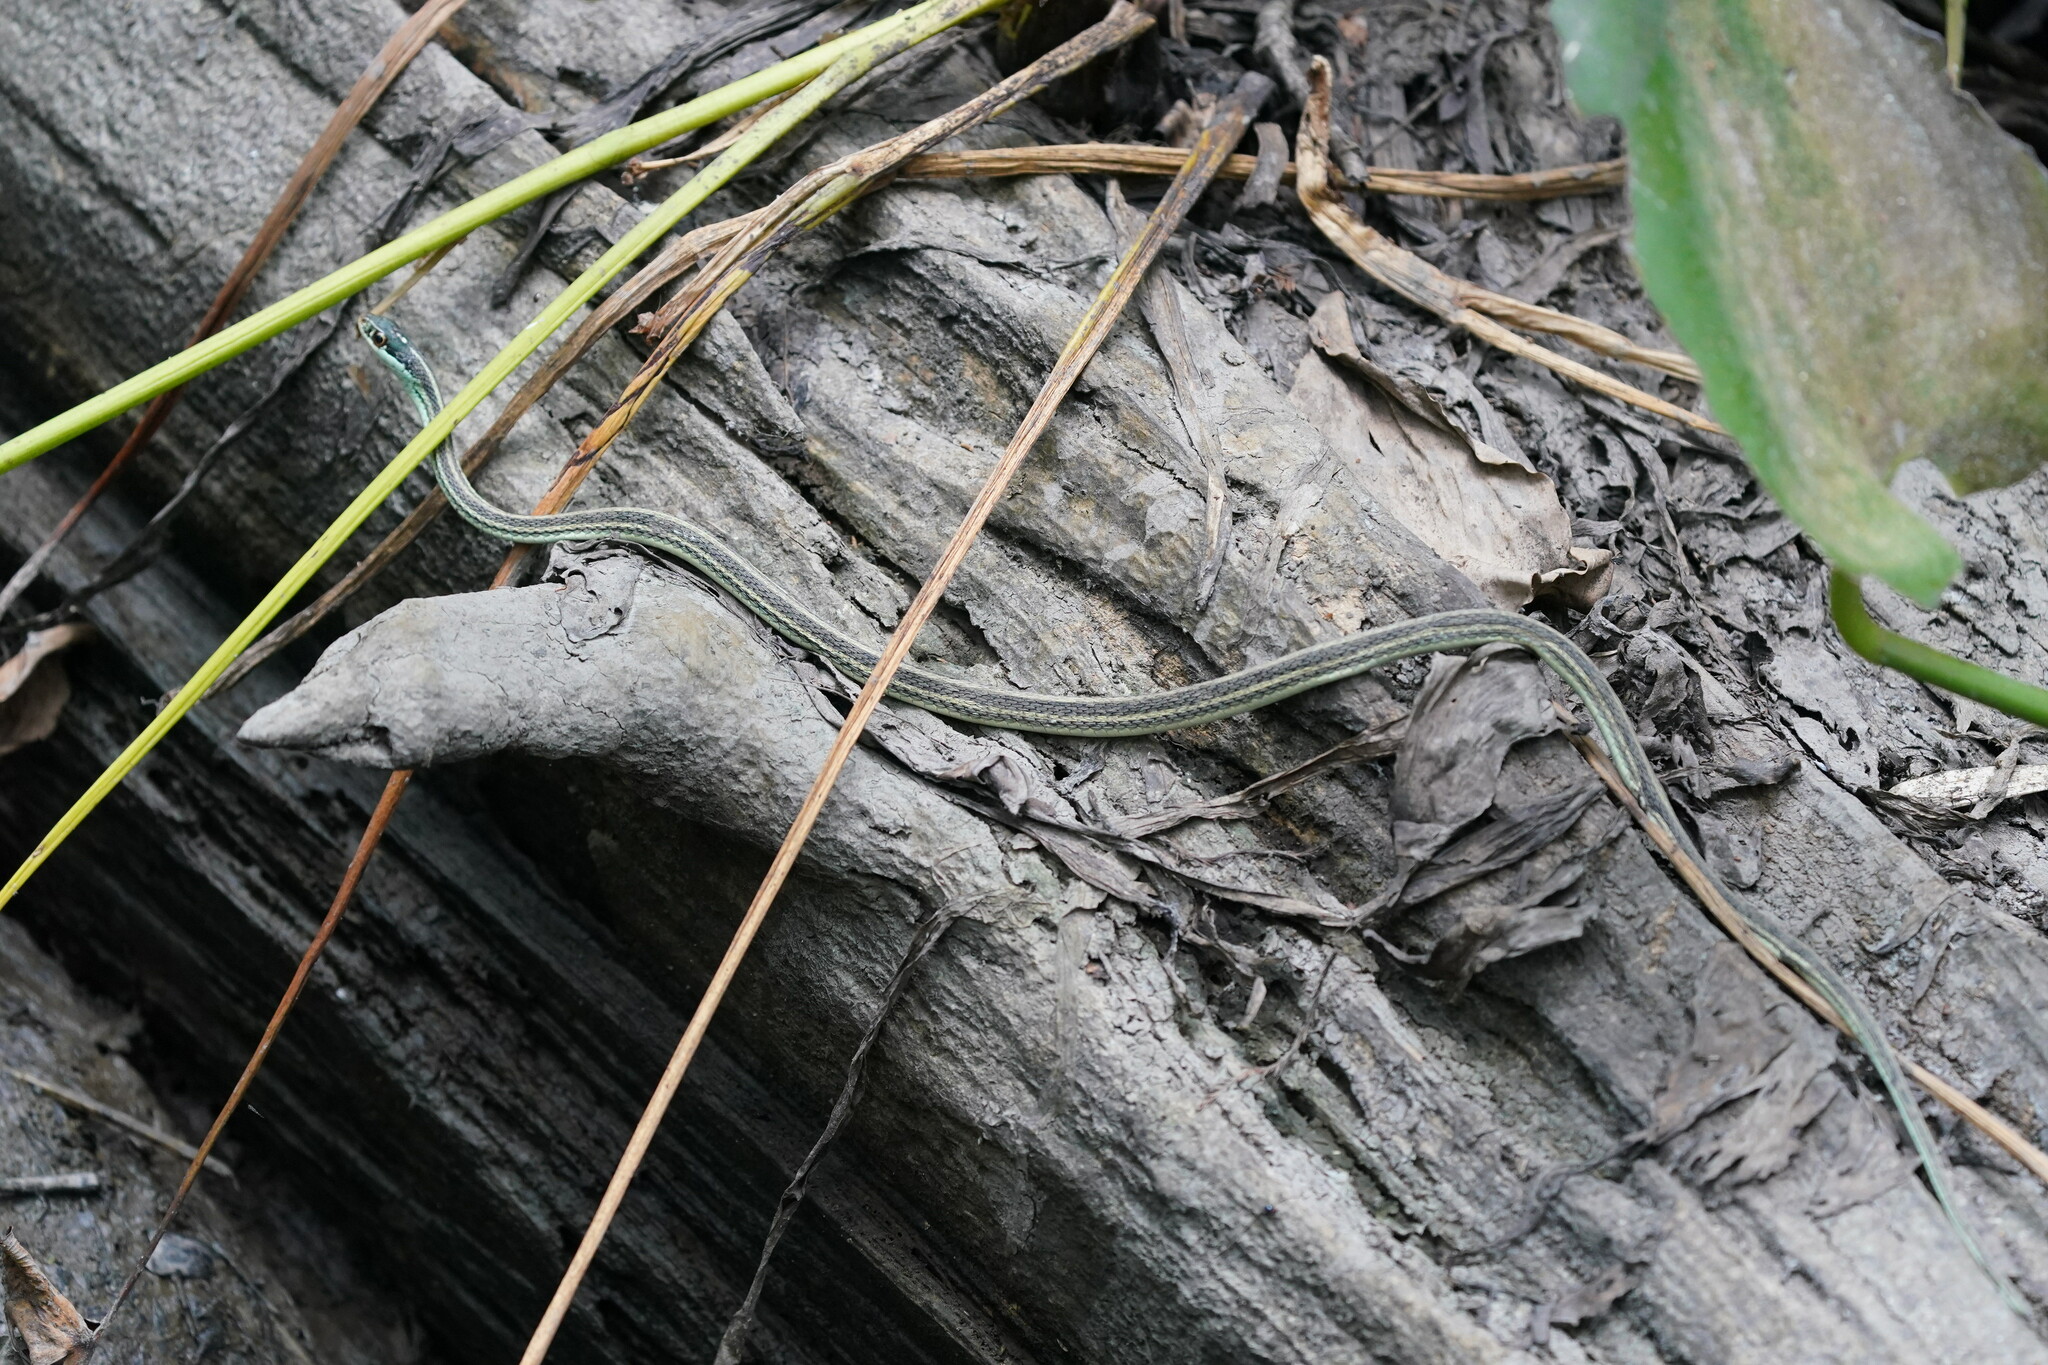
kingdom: Animalia
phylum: Chordata
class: Squamata
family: Colubridae
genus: Thamnophis
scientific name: Thamnophis proximus
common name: Western ribbon snake
